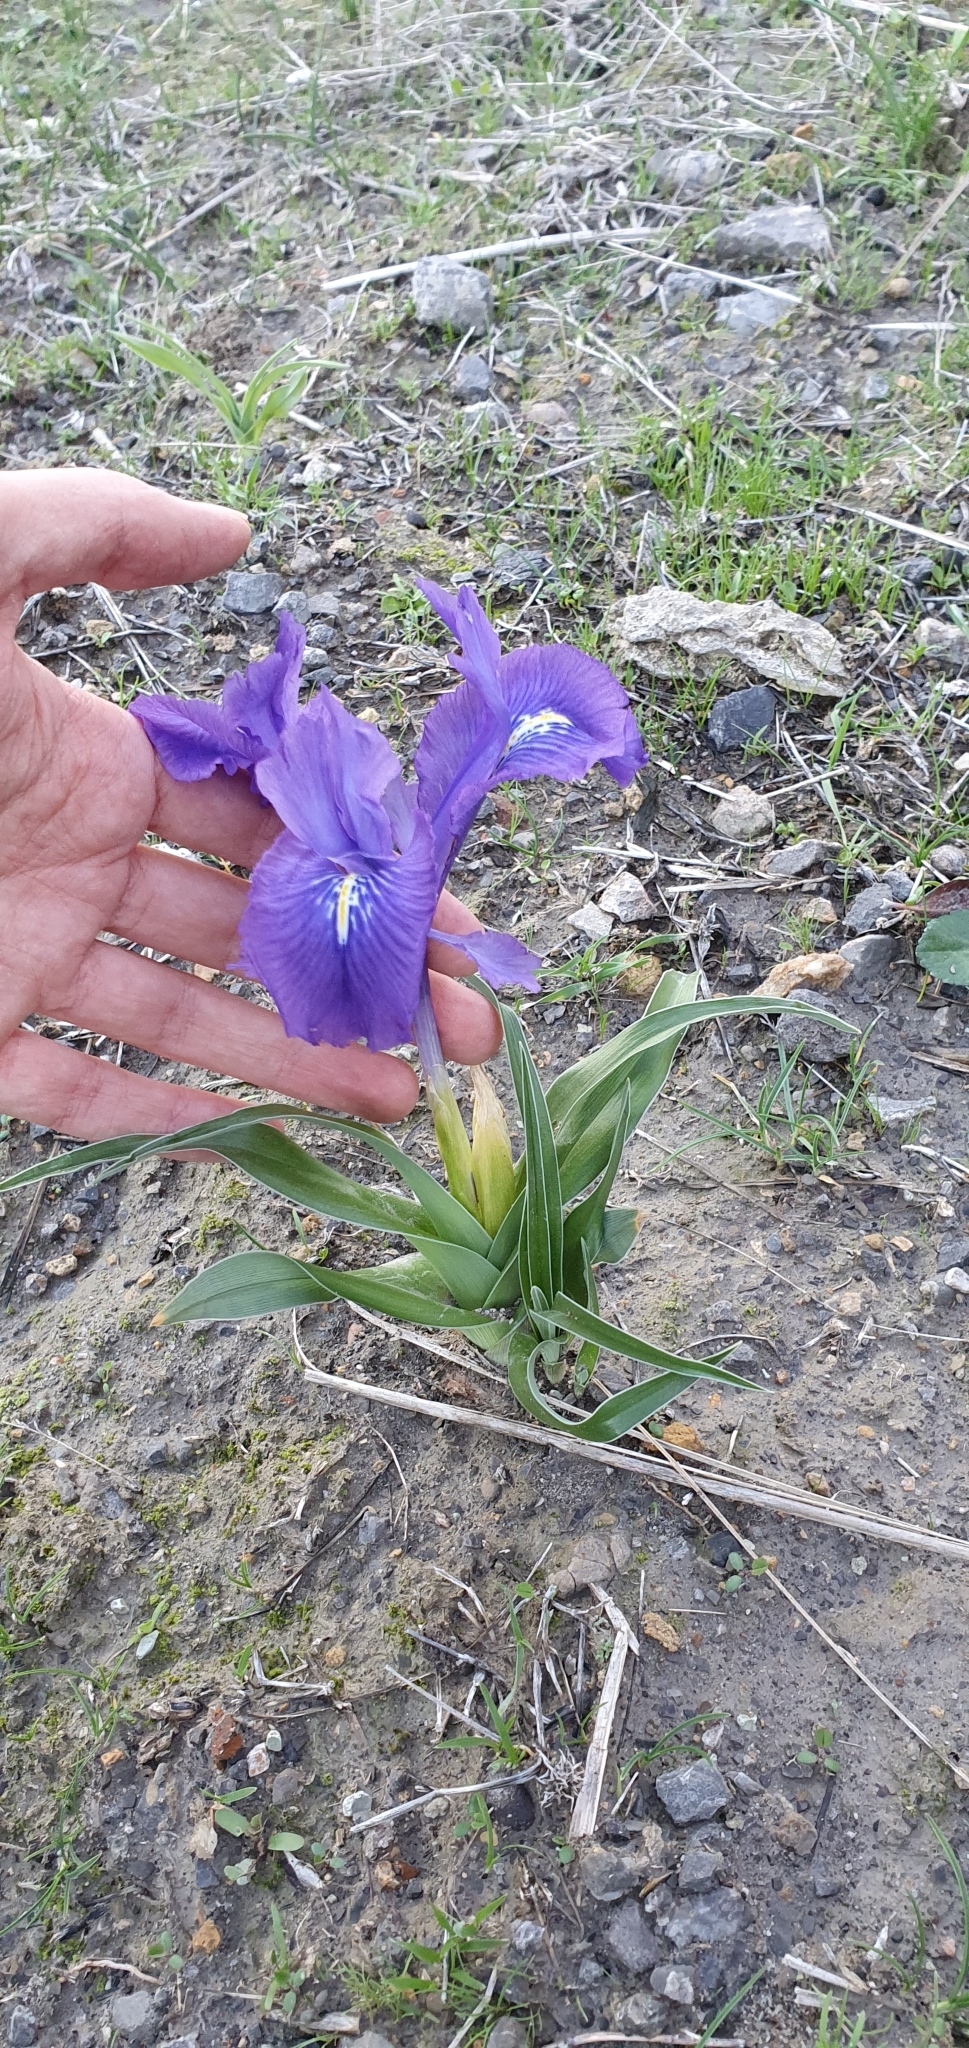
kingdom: Plantae
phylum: Tracheophyta
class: Liliopsida
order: Asparagales
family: Iridaceae
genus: Iris
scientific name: Iris planifolia
